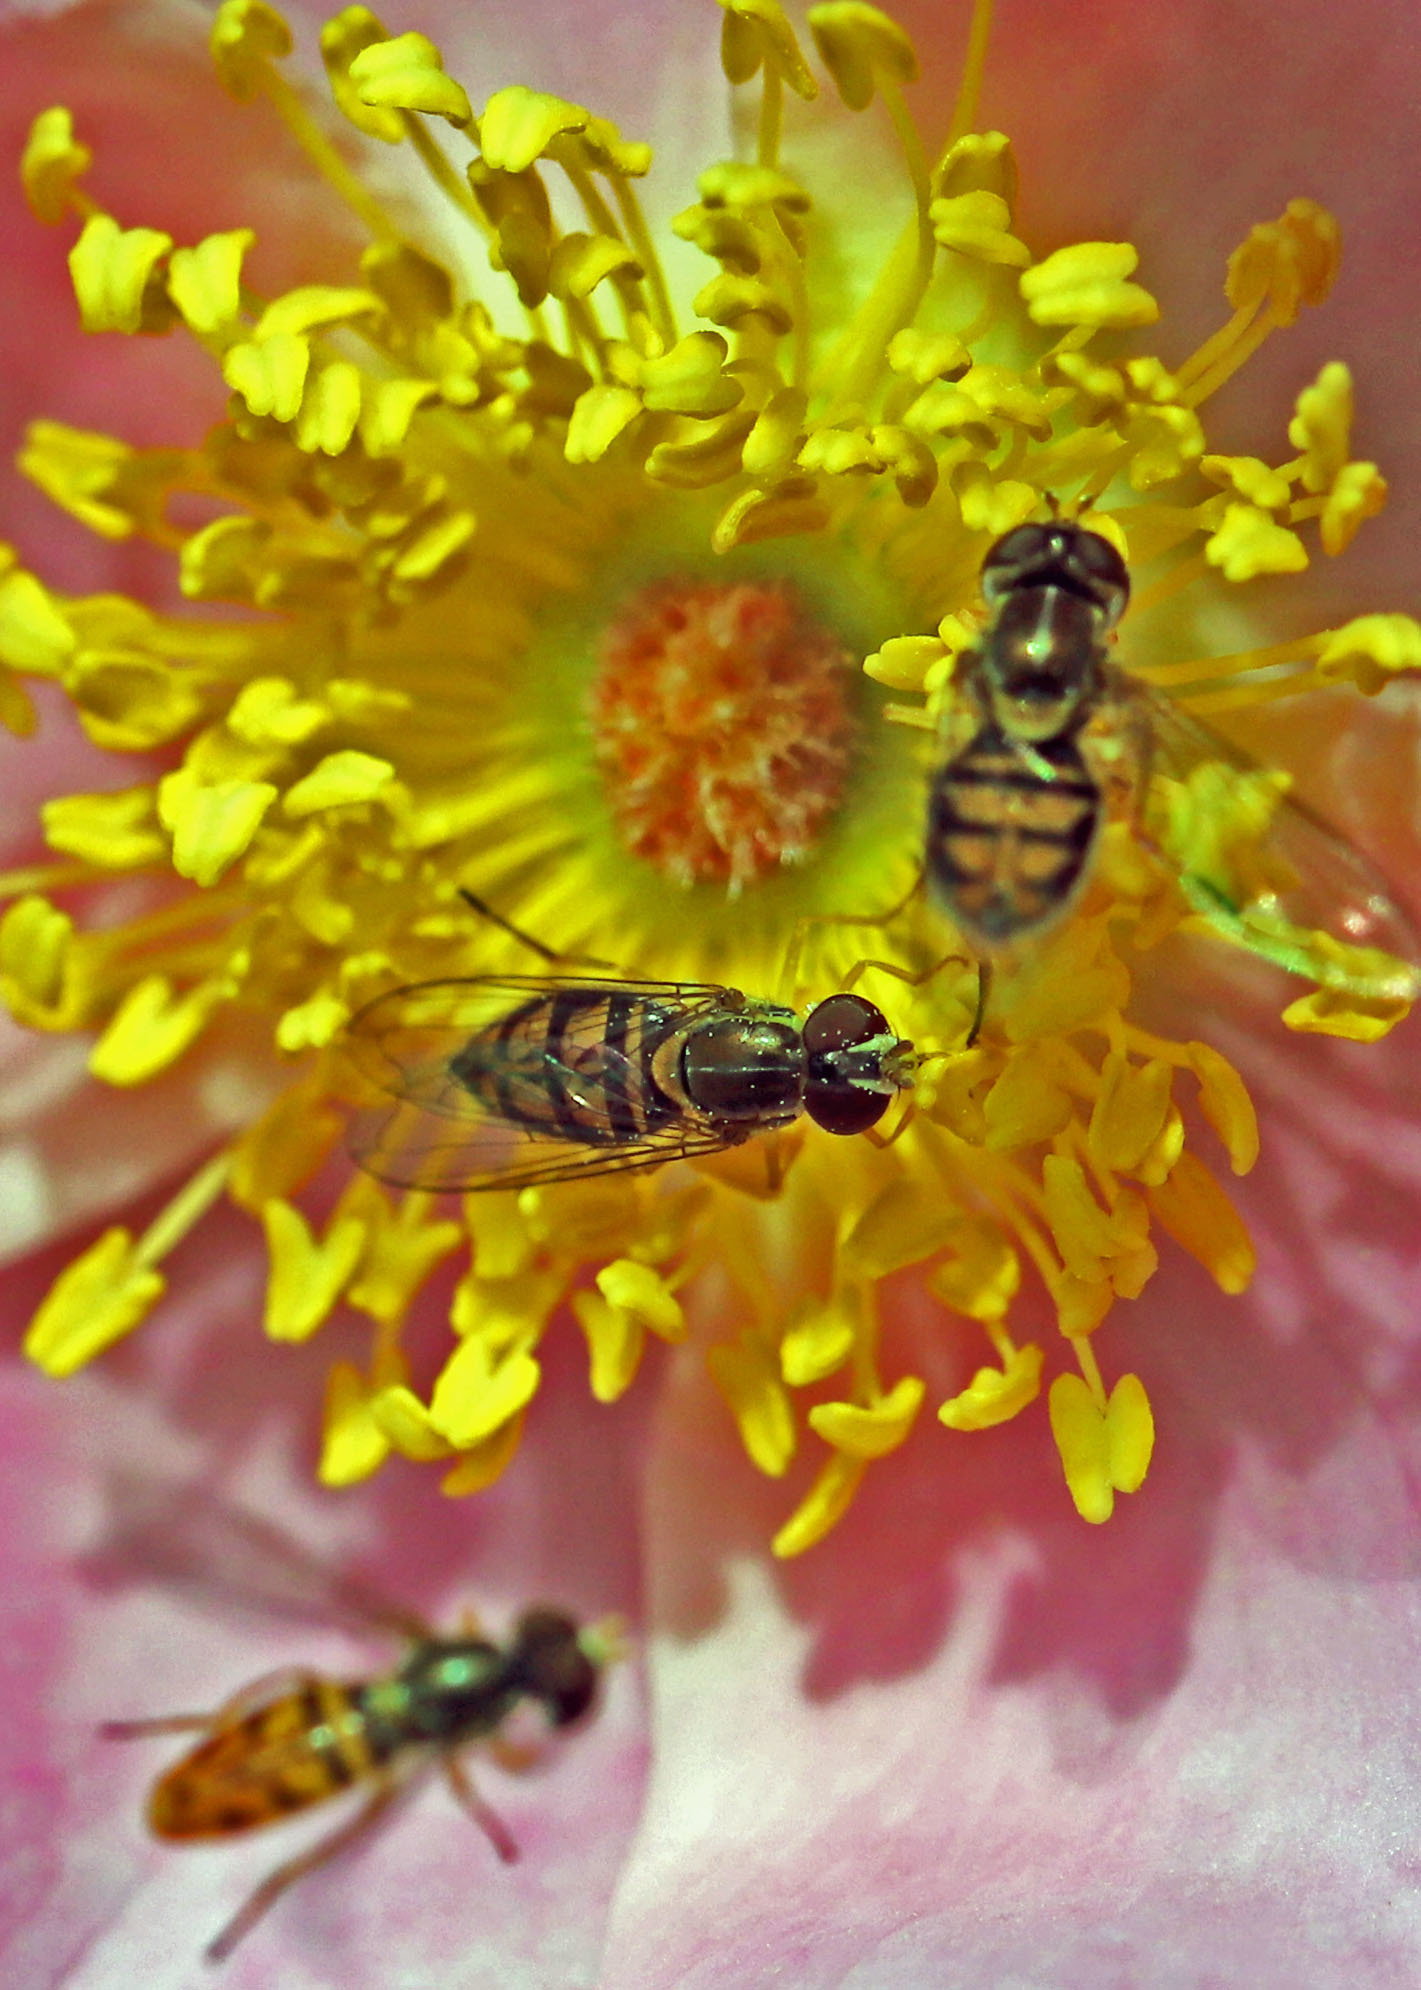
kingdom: Animalia
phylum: Arthropoda
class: Insecta
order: Diptera
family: Syrphidae
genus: Toxomerus
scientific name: Toxomerus marginatus
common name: Syrphid fly
